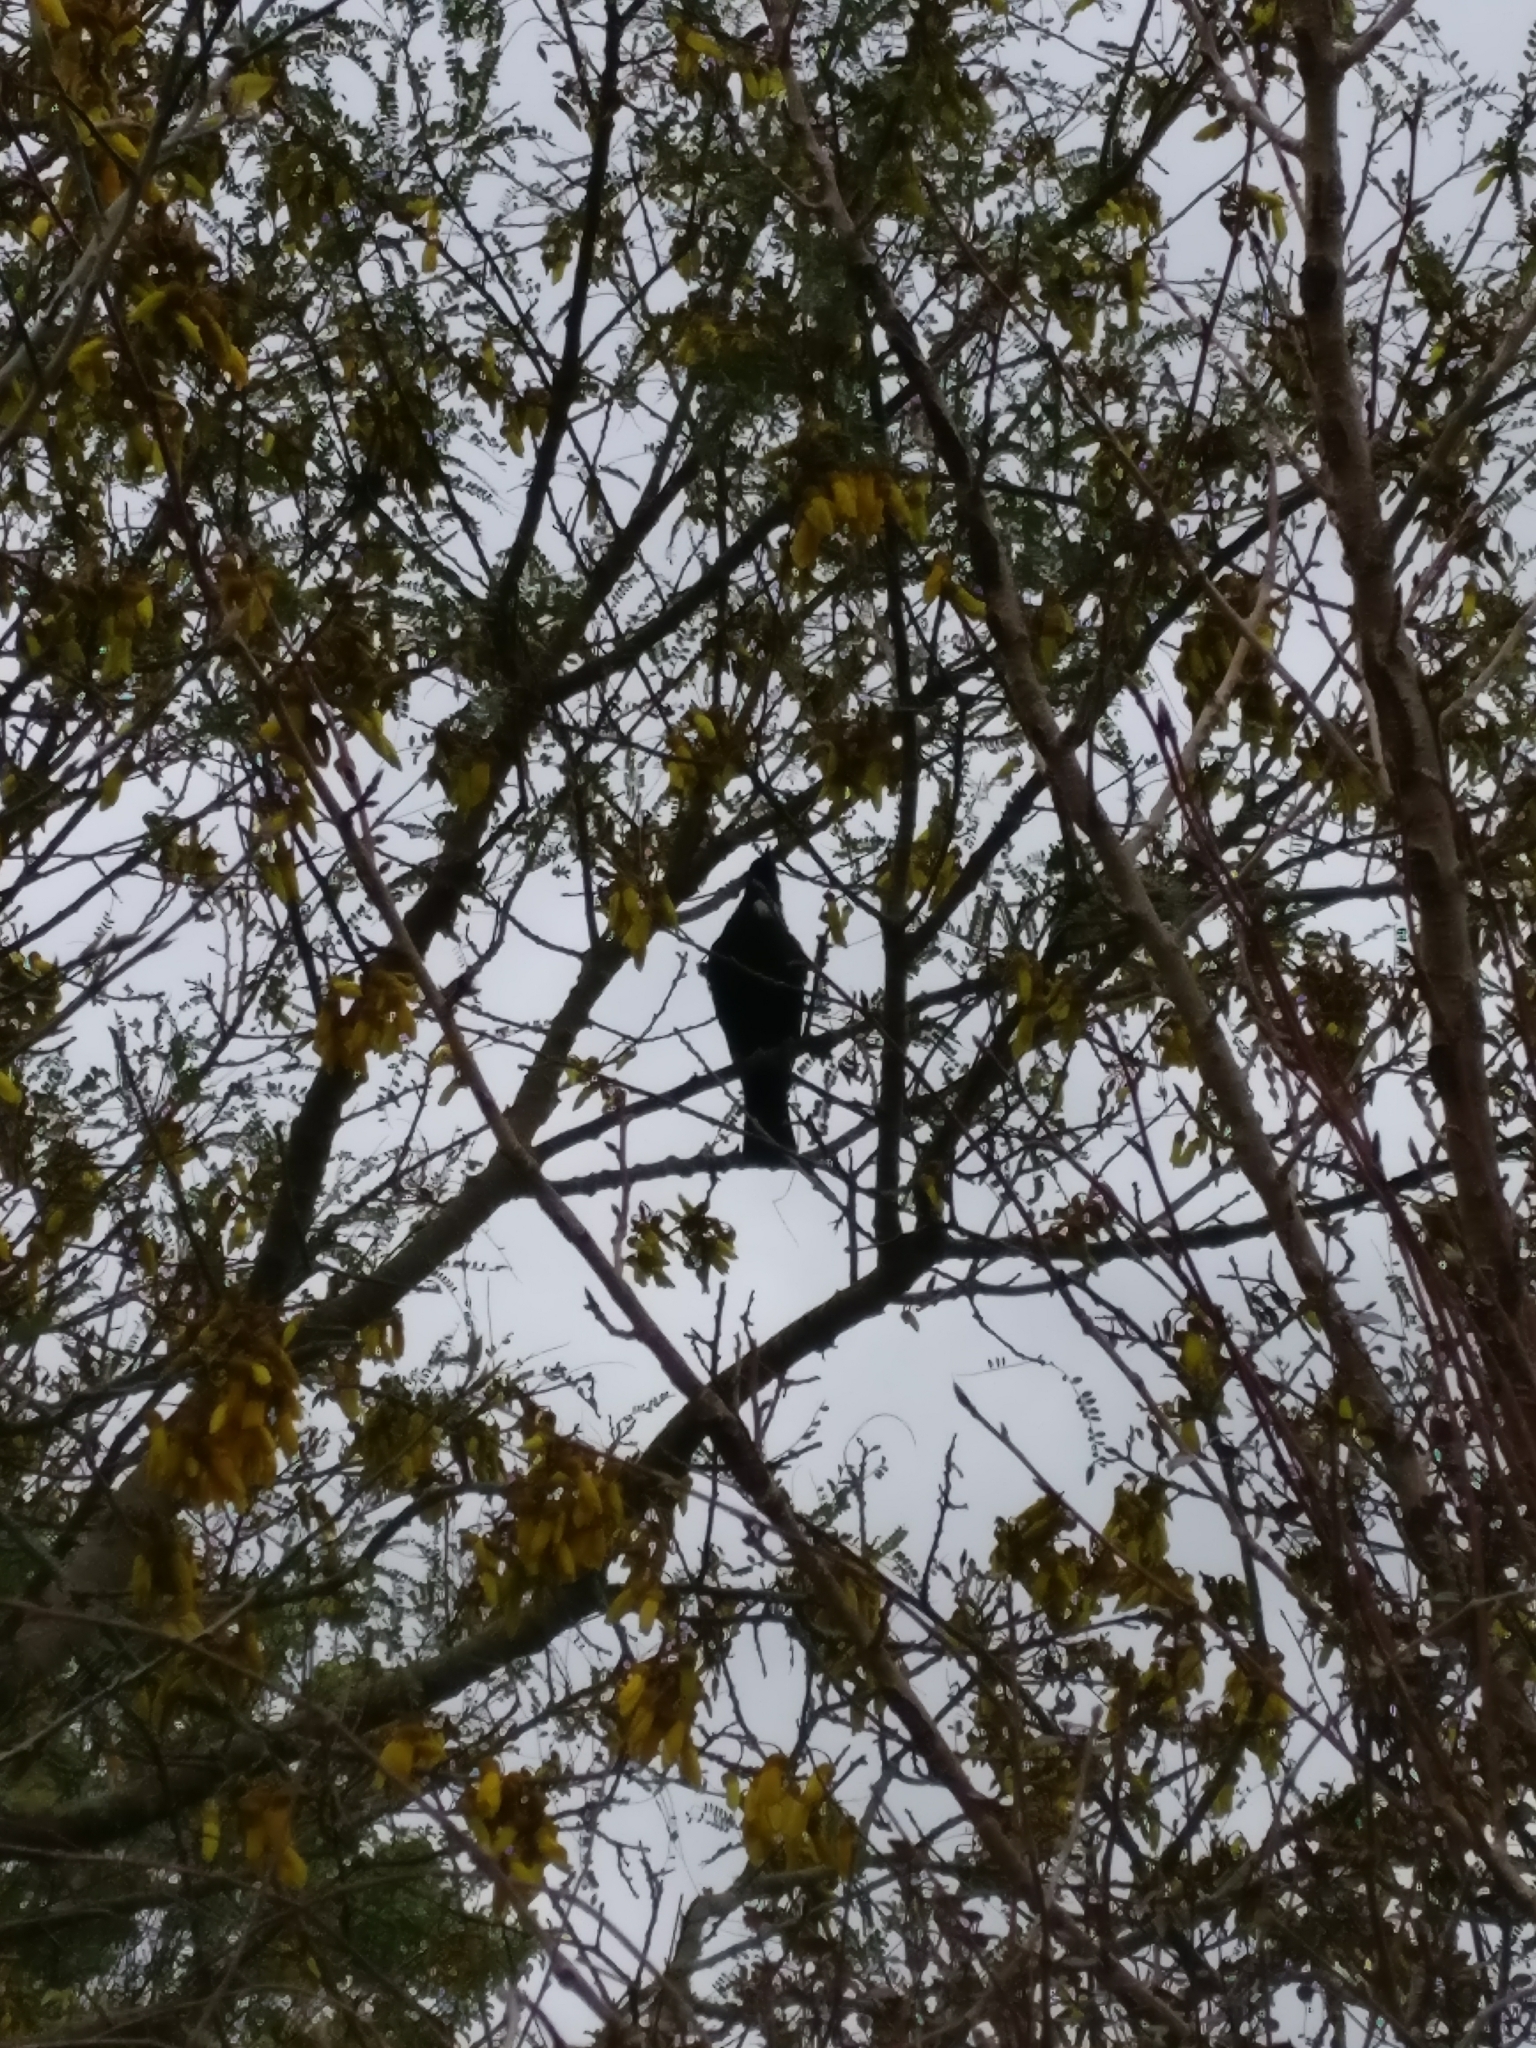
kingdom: Animalia
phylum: Chordata
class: Aves
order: Passeriformes
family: Meliphagidae
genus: Prosthemadera
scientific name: Prosthemadera novaeseelandiae
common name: Tui
